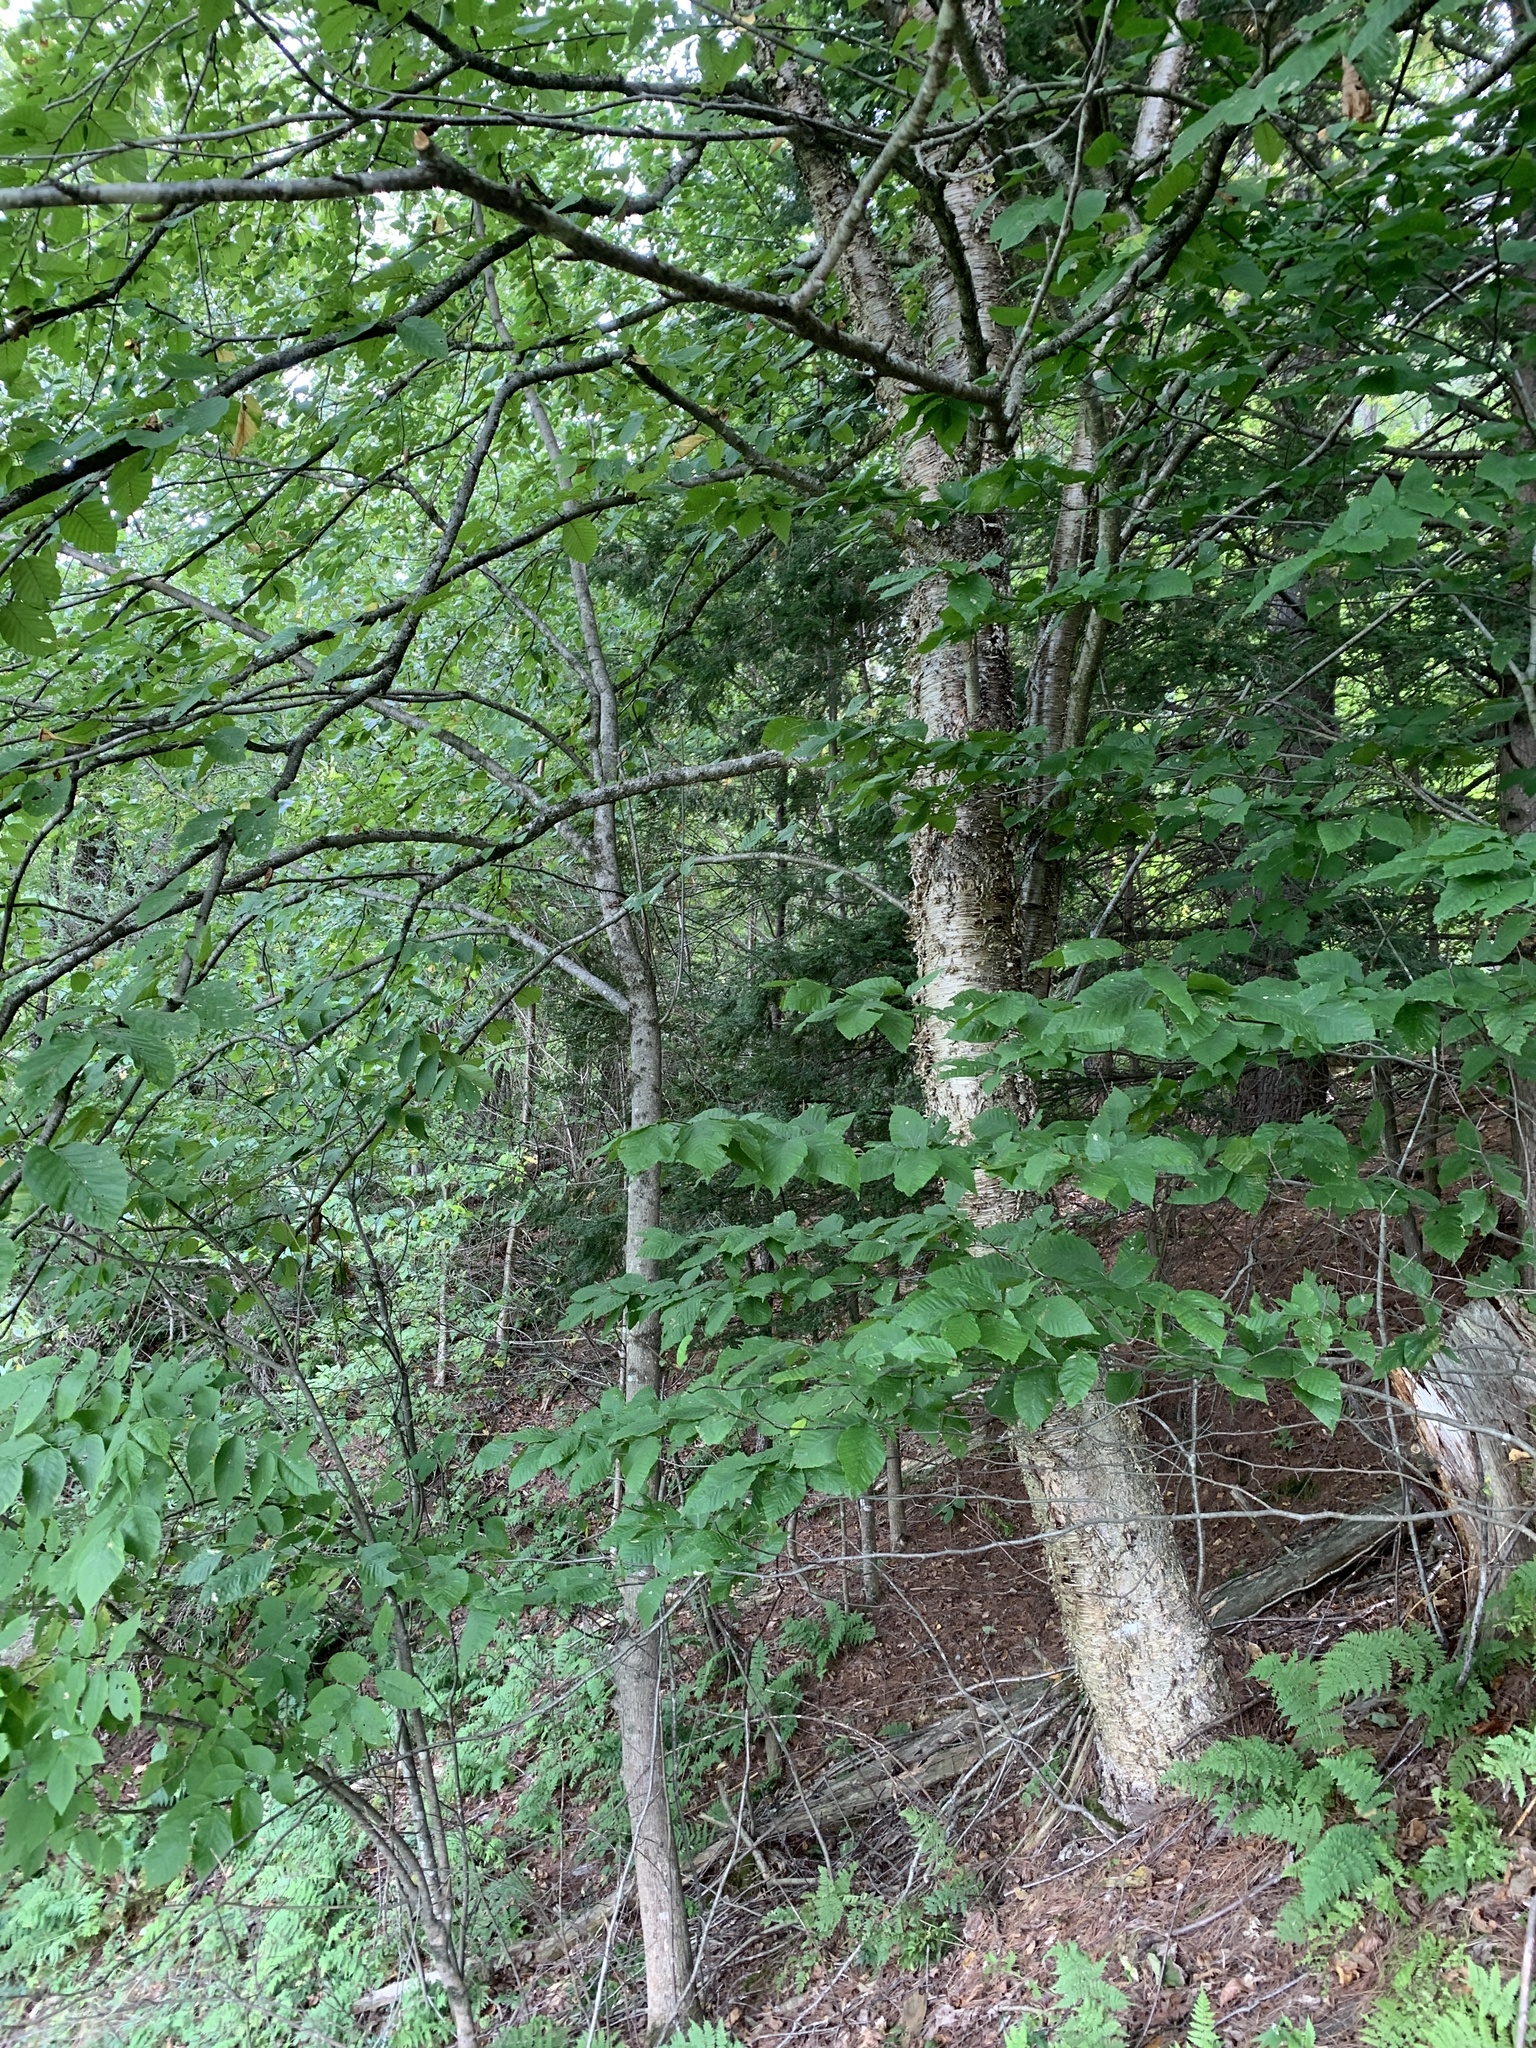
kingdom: Plantae
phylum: Tracheophyta
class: Magnoliopsida
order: Fagales
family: Betulaceae
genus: Betula
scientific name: Betula alleghaniensis
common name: Yellow birch
